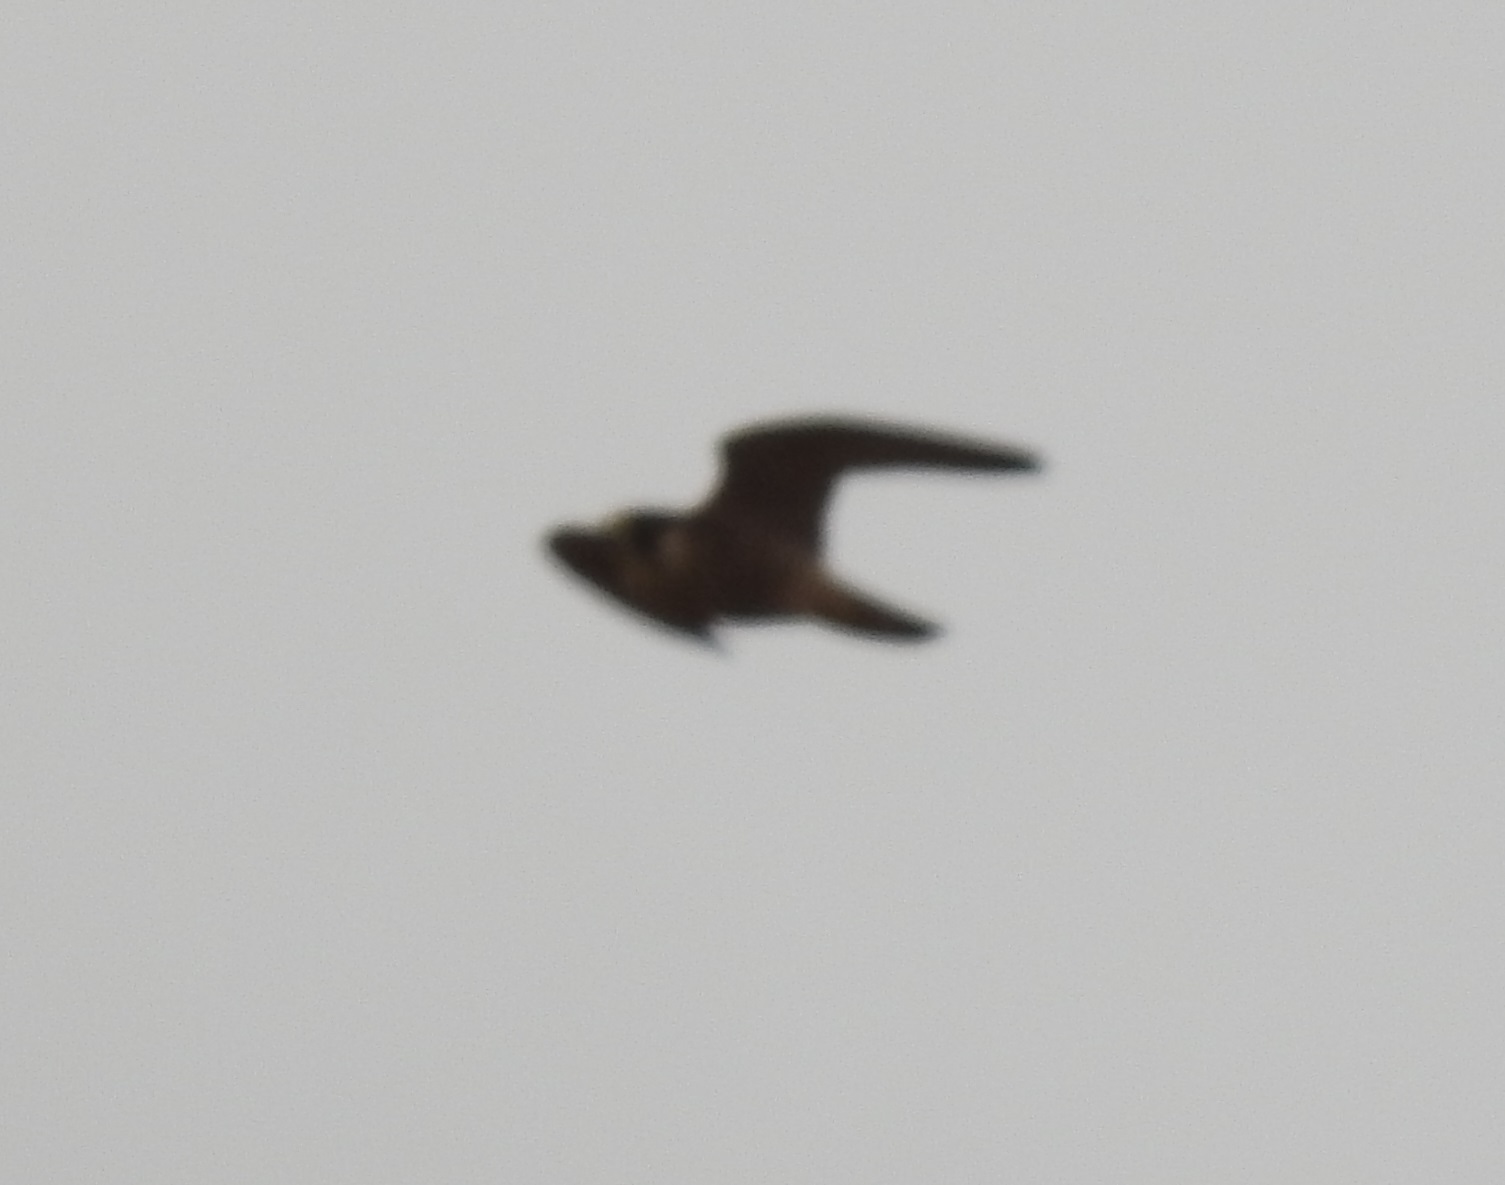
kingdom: Animalia
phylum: Chordata
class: Aves
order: Falconiformes
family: Falconidae
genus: Falco
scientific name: Falco peregrinus
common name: Peregrine falcon
